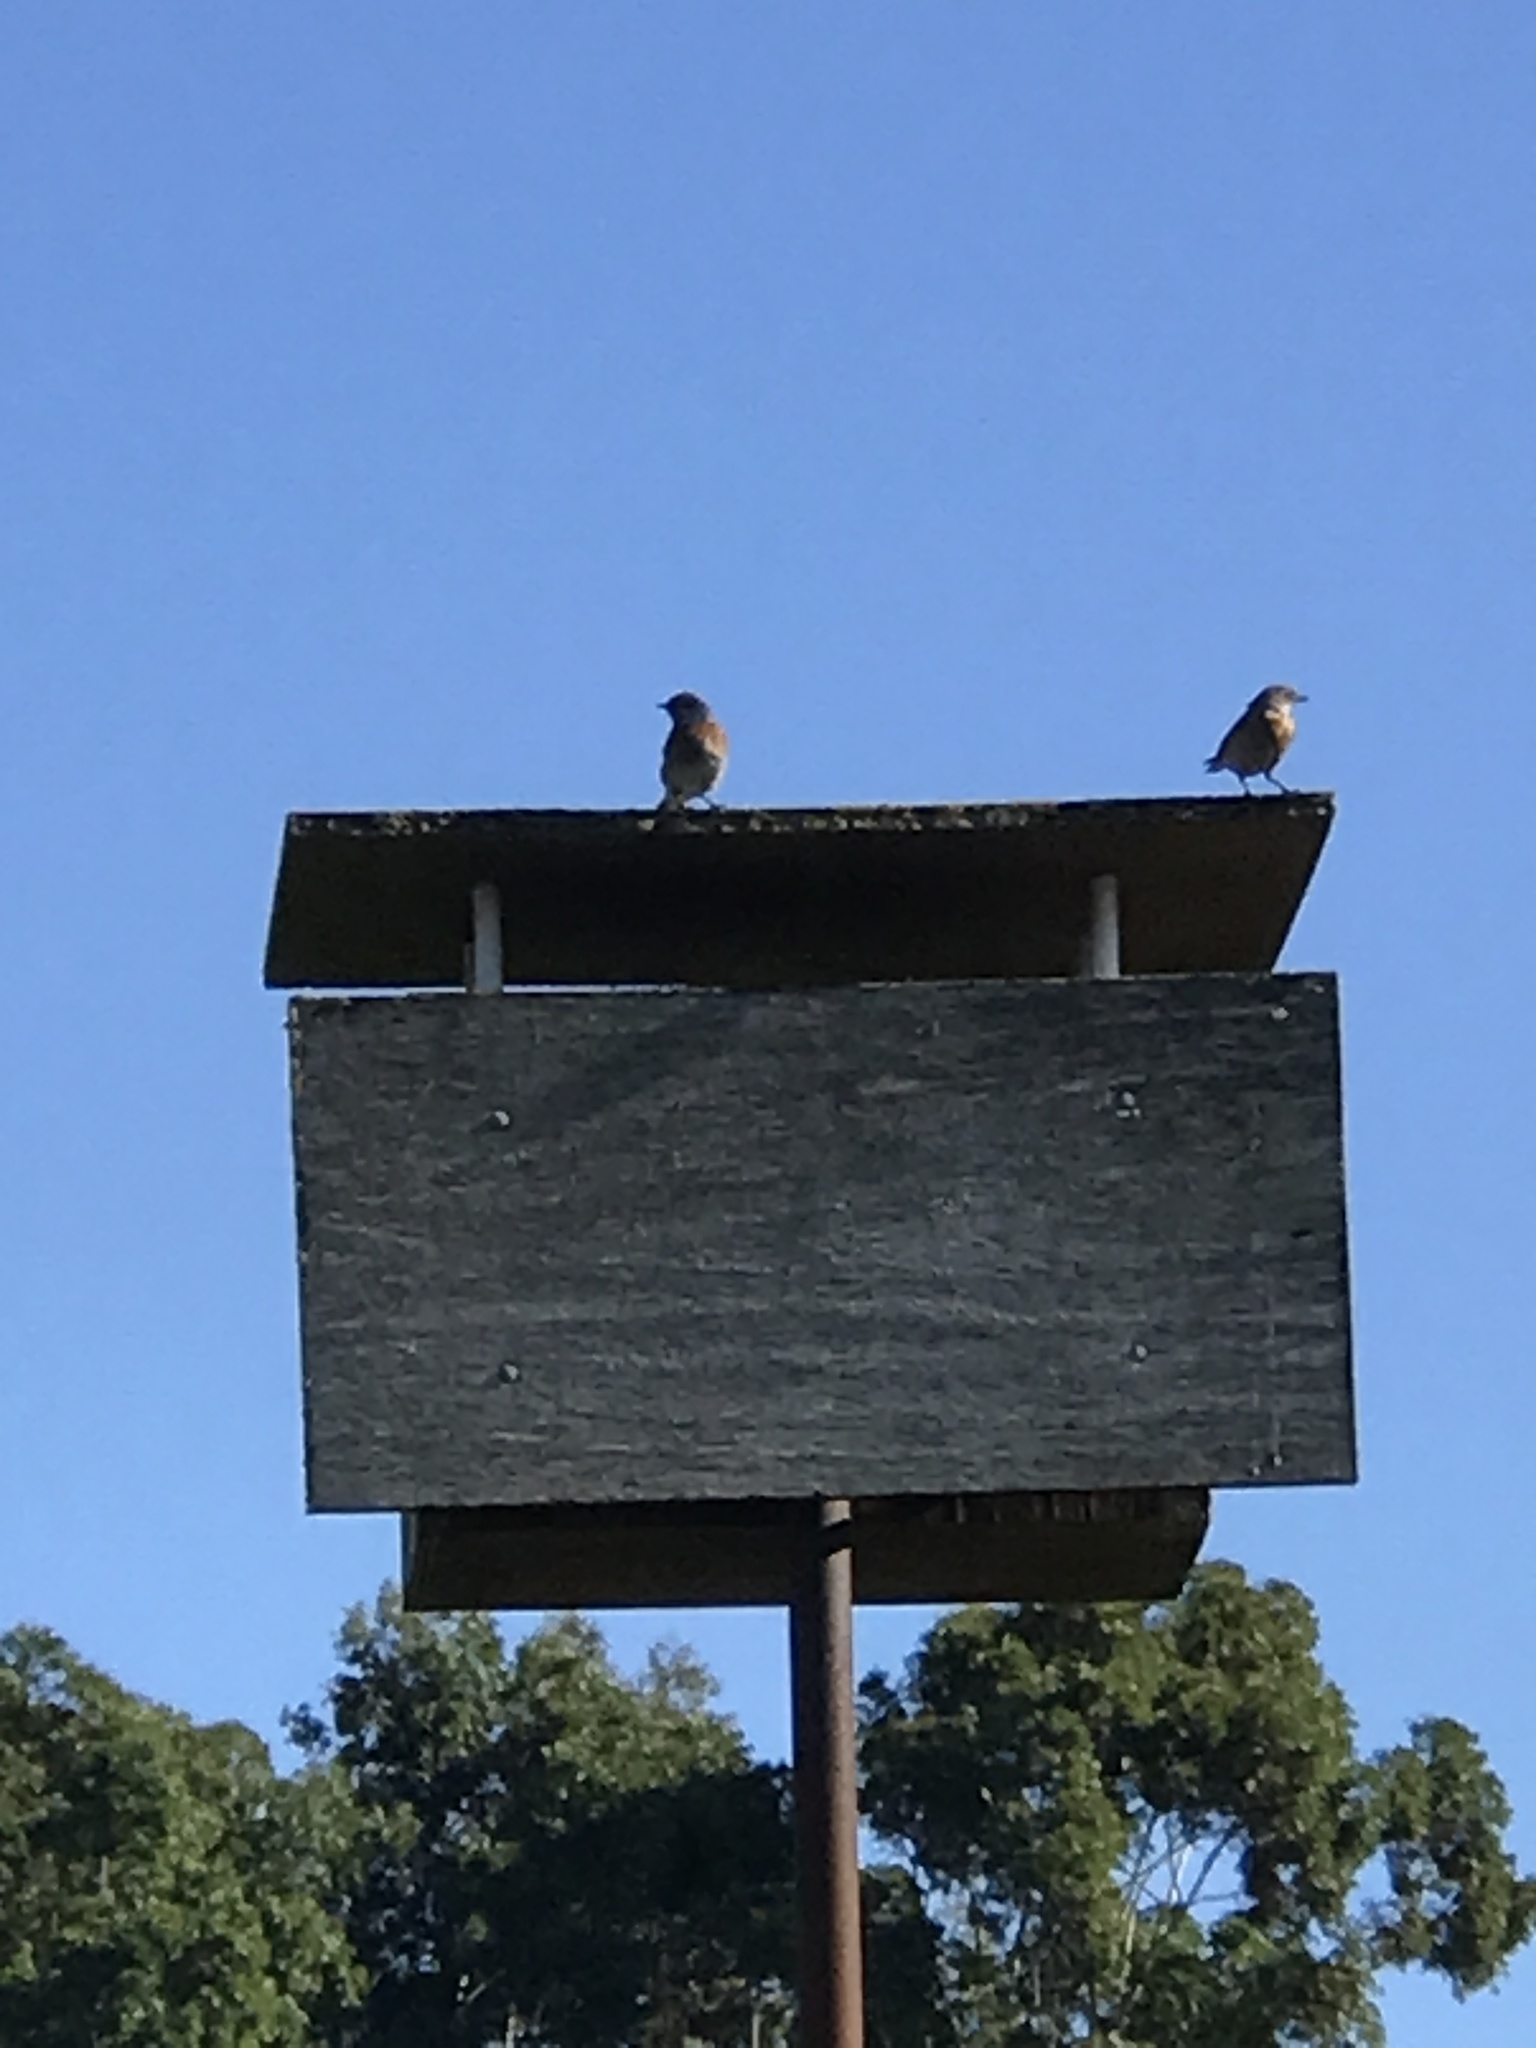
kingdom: Animalia
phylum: Chordata
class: Aves
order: Passeriformes
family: Turdidae
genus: Sialia
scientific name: Sialia mexicana
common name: Western bluebird
